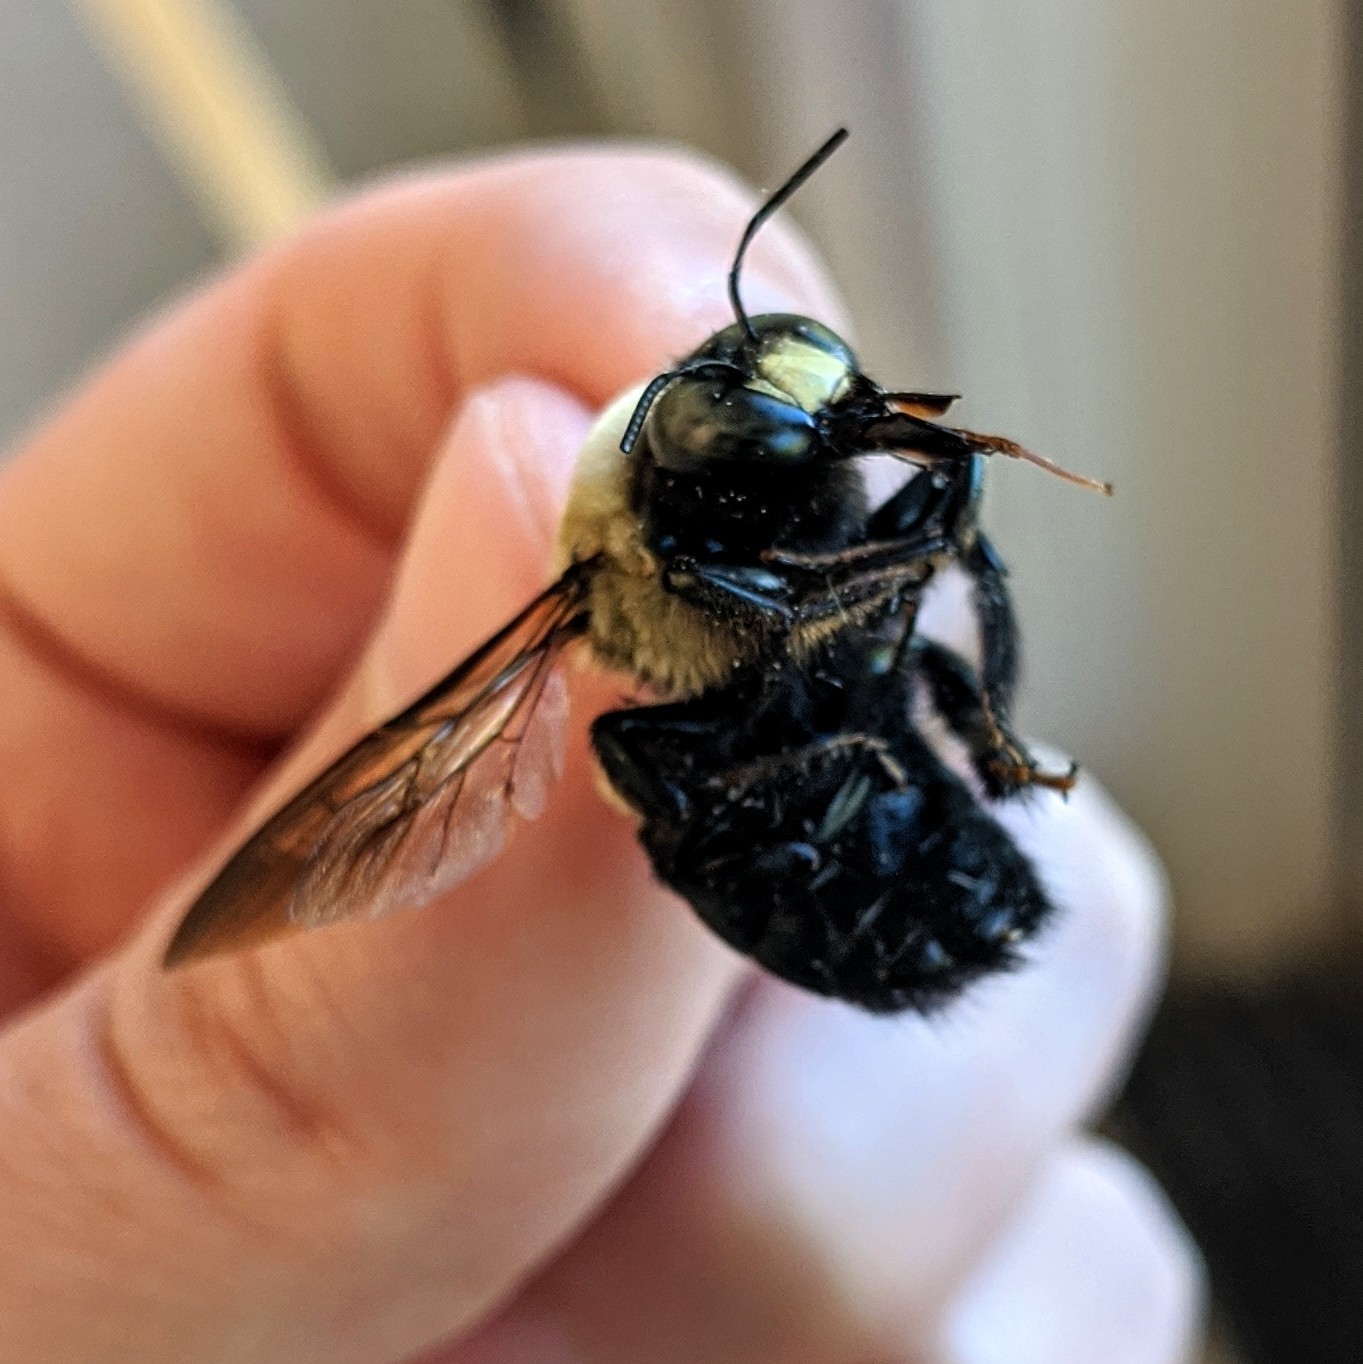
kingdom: Animalia
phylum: Arthropoda
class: Insecta
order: Hymenoptera
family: Apidae
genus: Xylocopa
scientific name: Xylocopa virginica
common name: Carpenter bee
